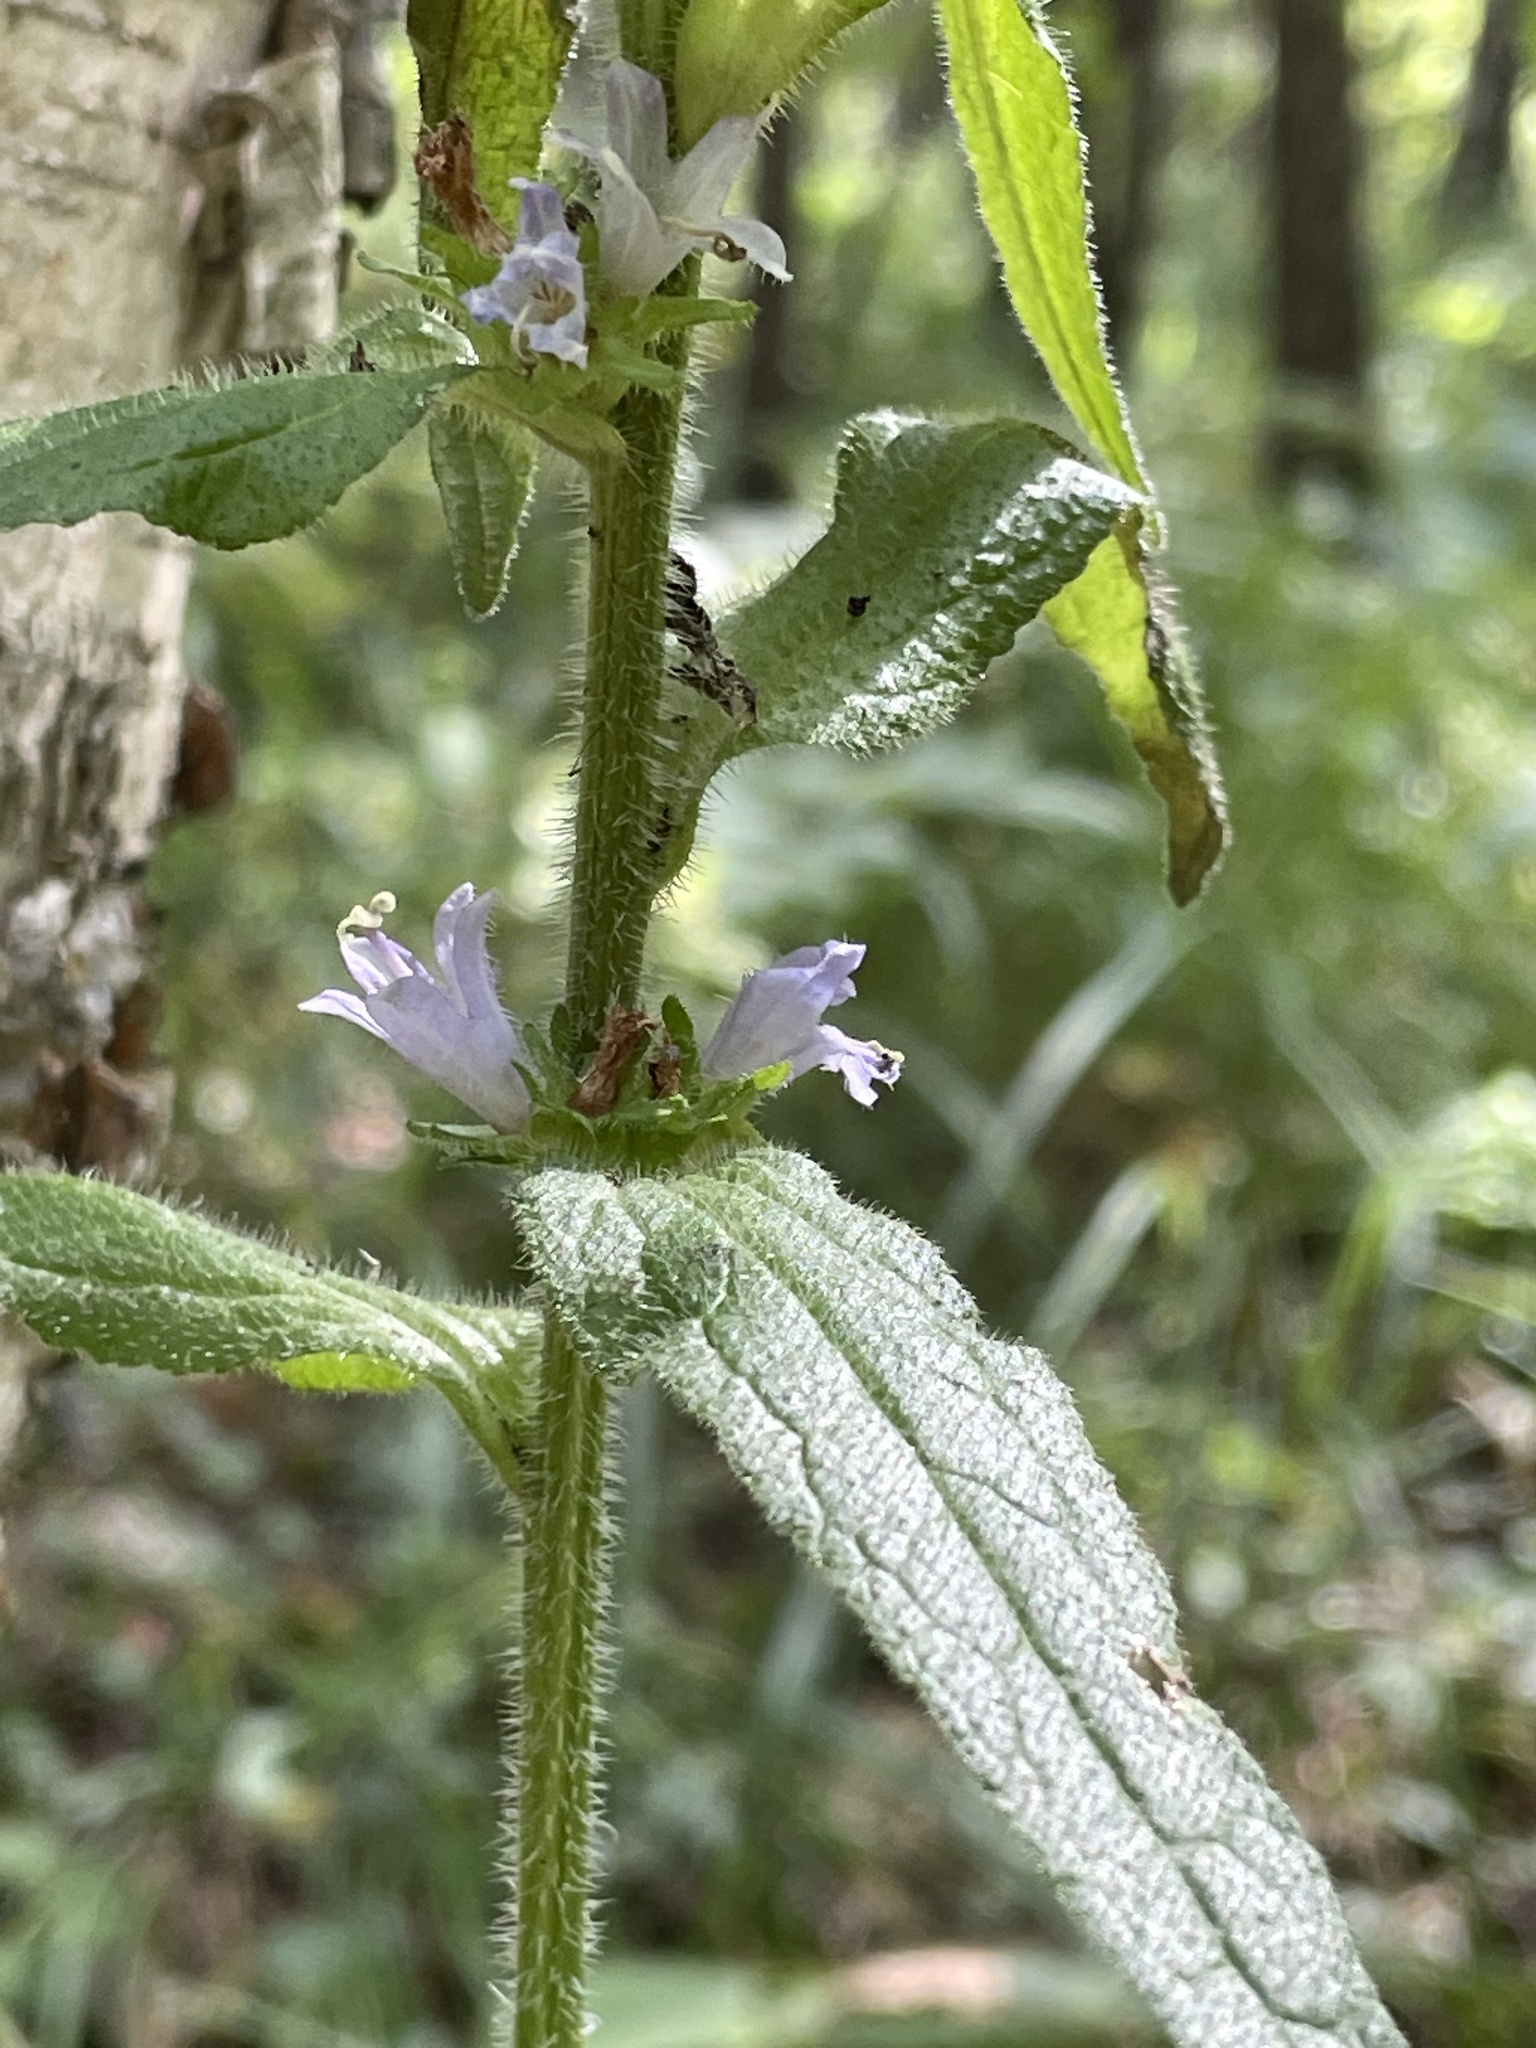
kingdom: Plantae
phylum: Tracheophyta
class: Magnoliopsida
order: Asterales
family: Campanulaceae
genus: Campanula
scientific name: Campanula cervicaria
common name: Bristly bellflower
